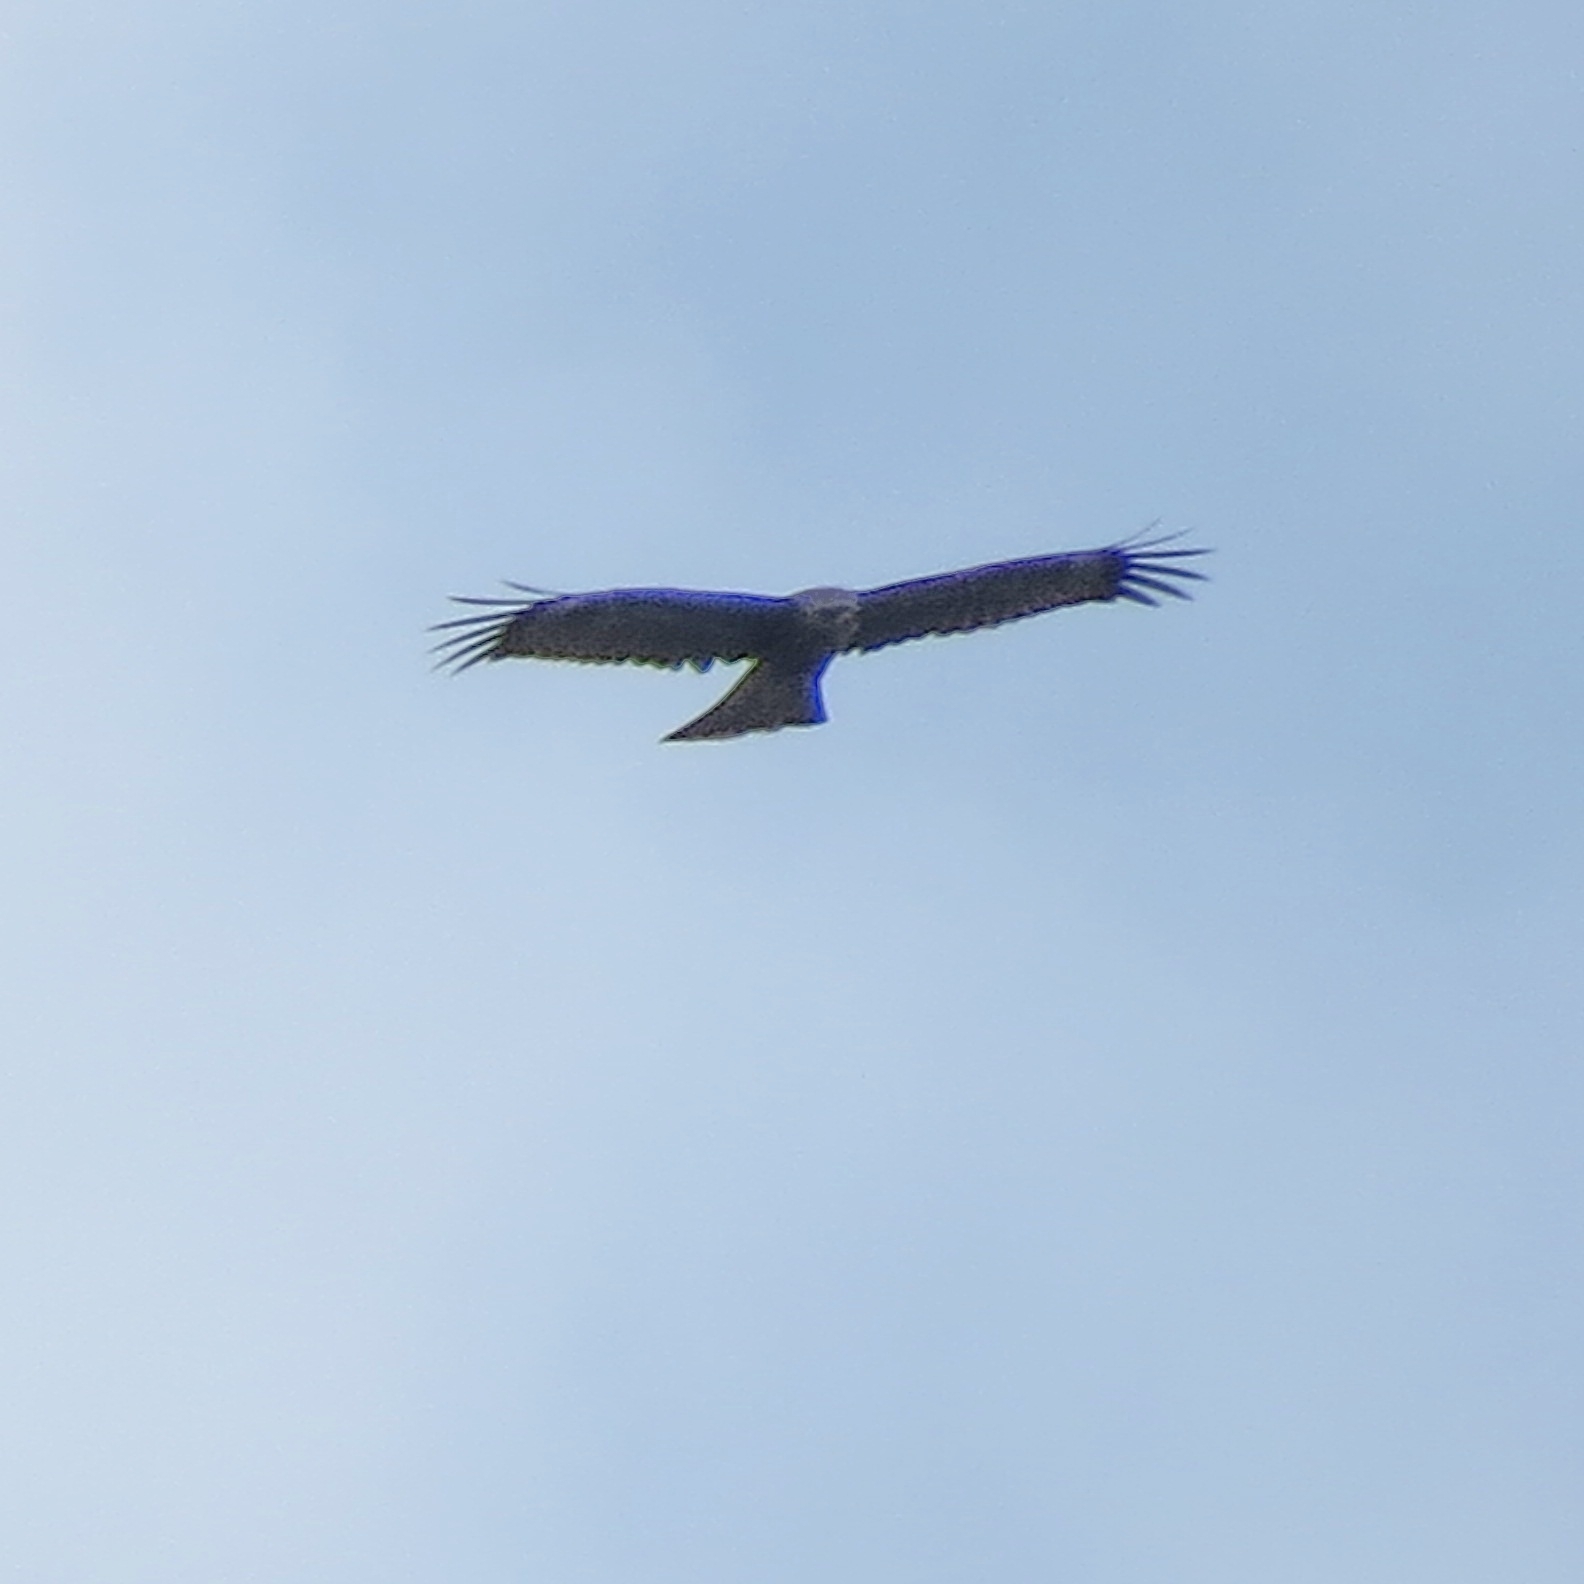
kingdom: Animalia
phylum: Chordata
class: Aves
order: Accipitriformes
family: Accipitridae
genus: Milvus
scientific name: Milvus migrans
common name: Black kite
